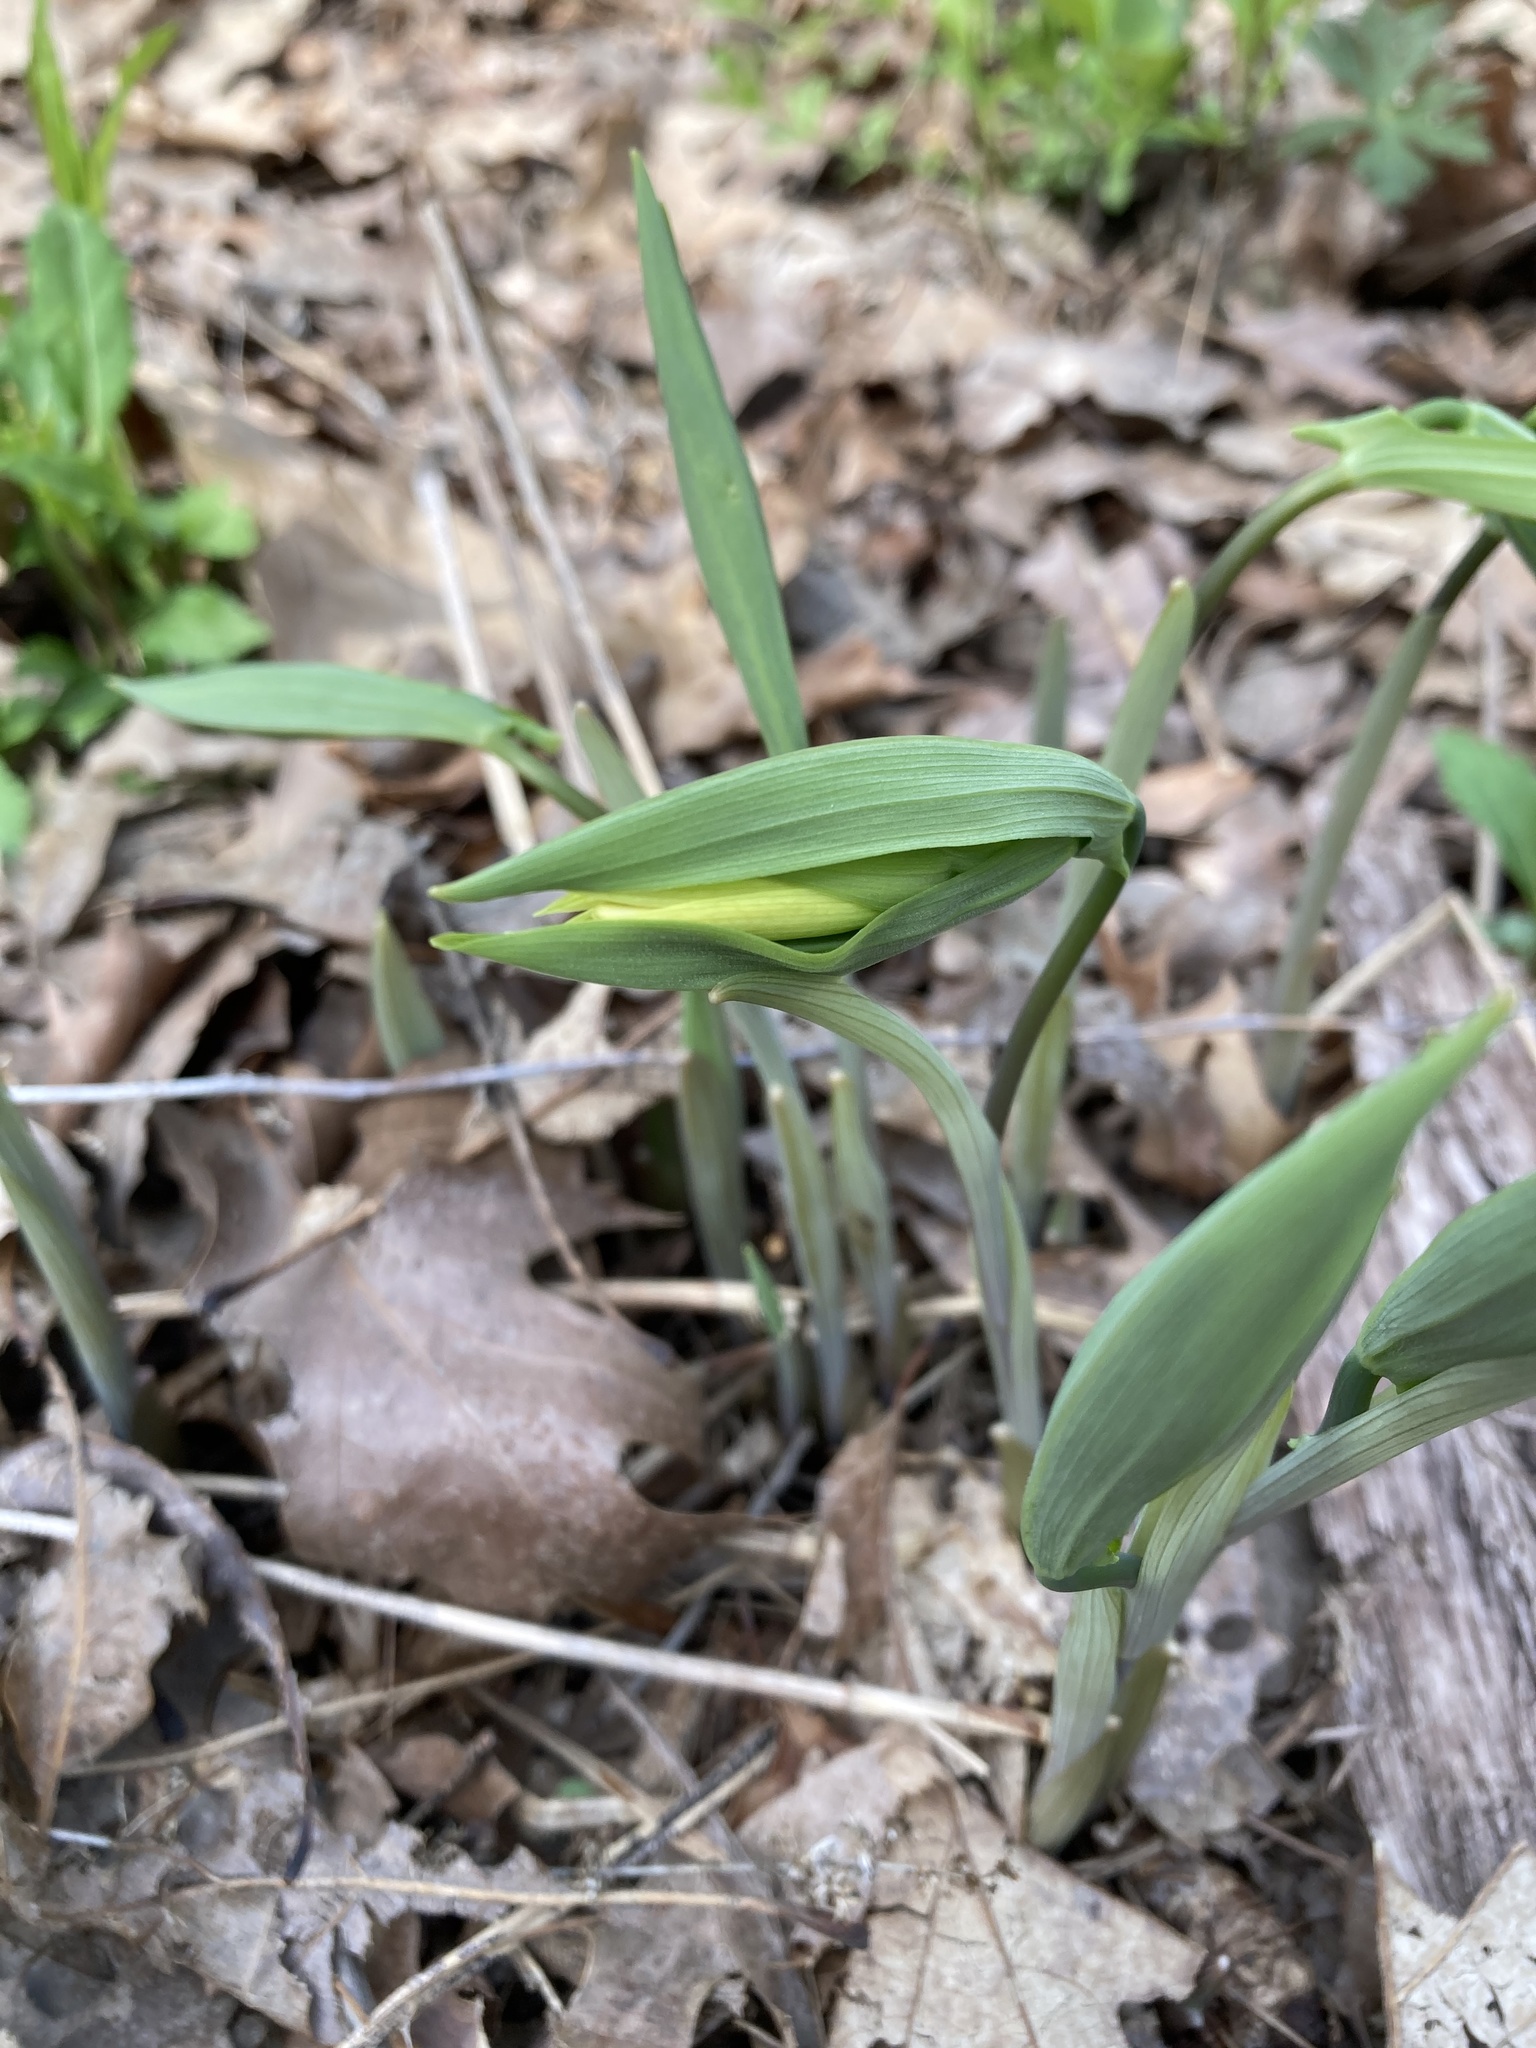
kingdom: Plantae
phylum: Tracheophyta
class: Liliopsida
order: Liliales
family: Colchicaceae
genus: Uvularia
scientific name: Uvularia grandiflora
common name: Bellwort
